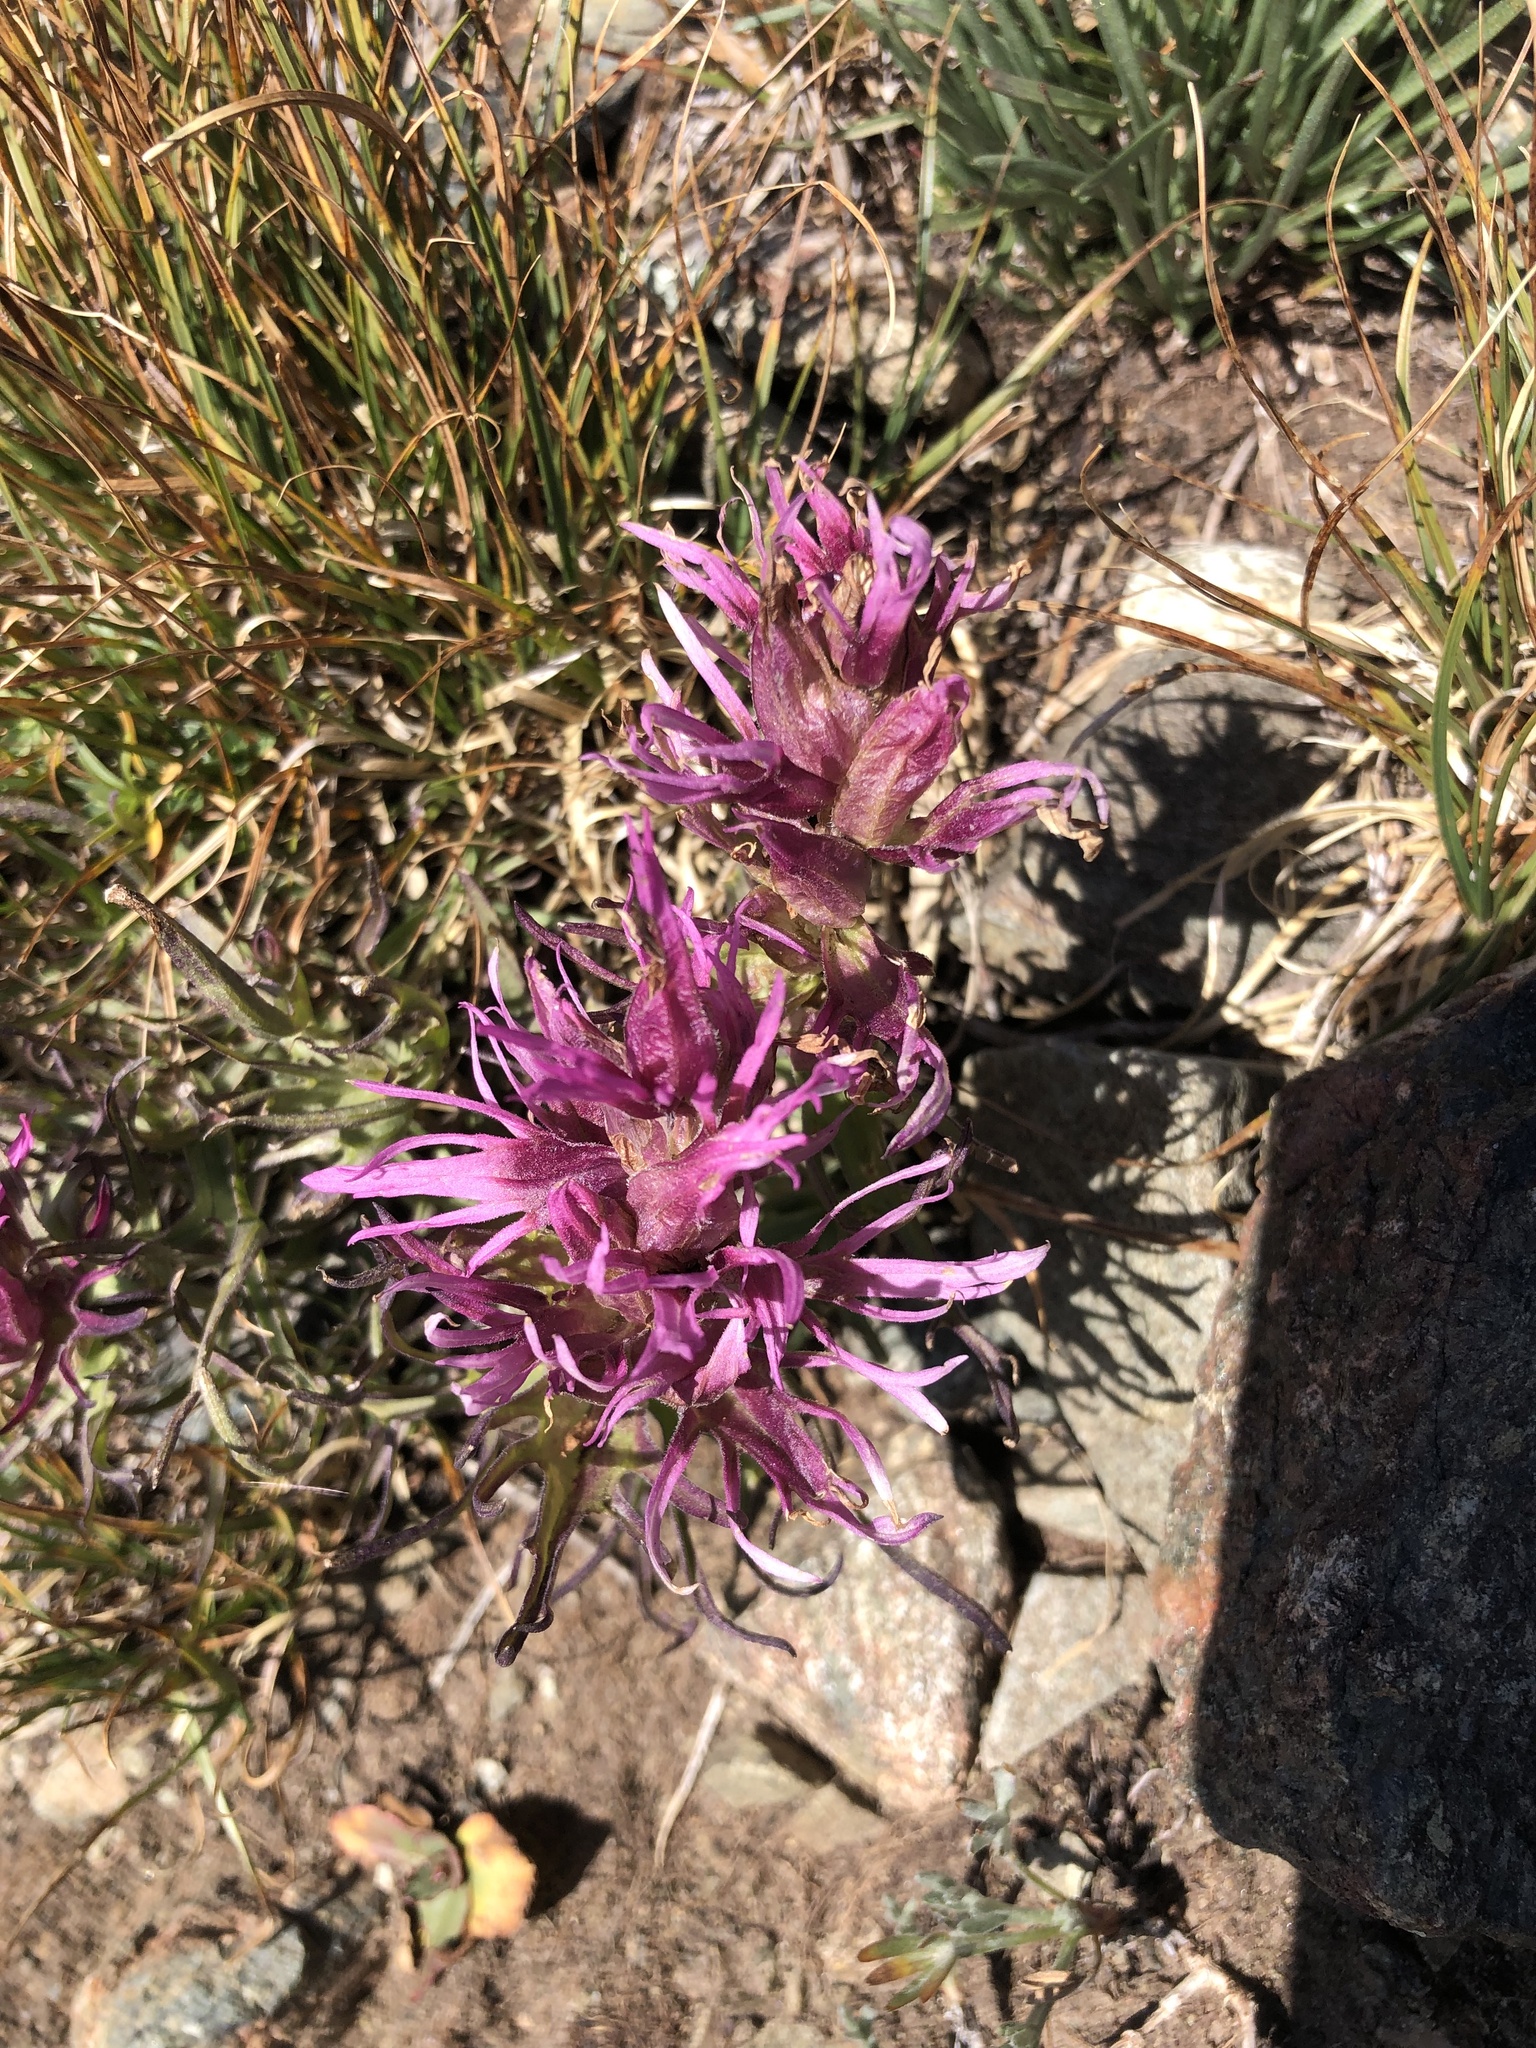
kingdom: Plantae
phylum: Tracheophyta
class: Magnoliopsida
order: Lamiales
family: Orobanchaceae
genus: Castilleja
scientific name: Castilleja haydenii
